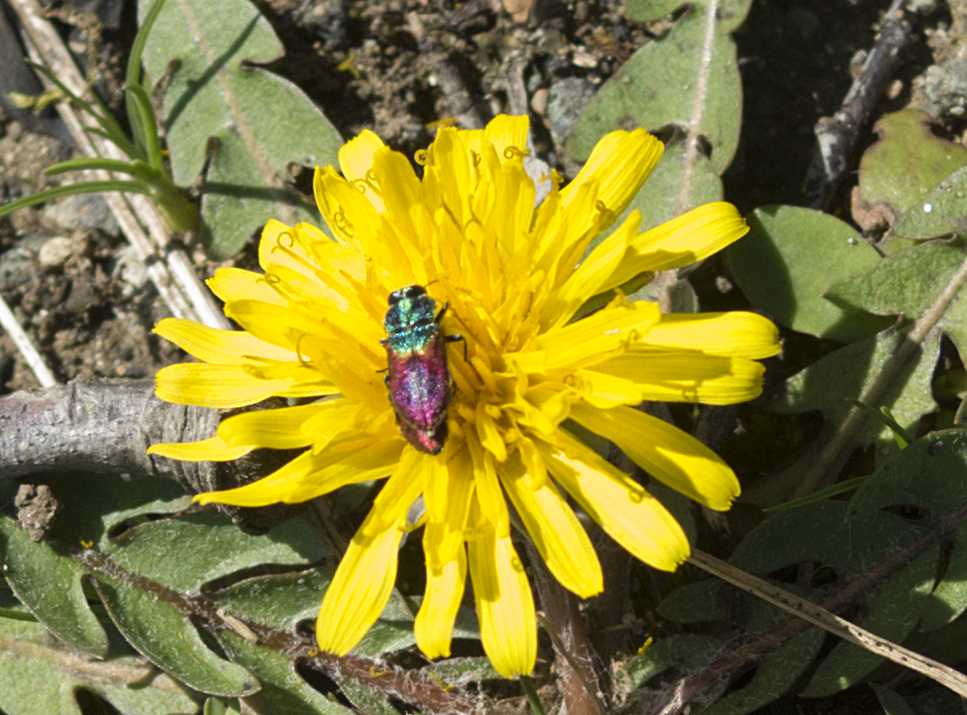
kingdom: Animalia
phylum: Arthropoda
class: Insecta
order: Coleoptera
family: Buprestidae
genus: Anthaxia
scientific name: Anthaxia salicis
